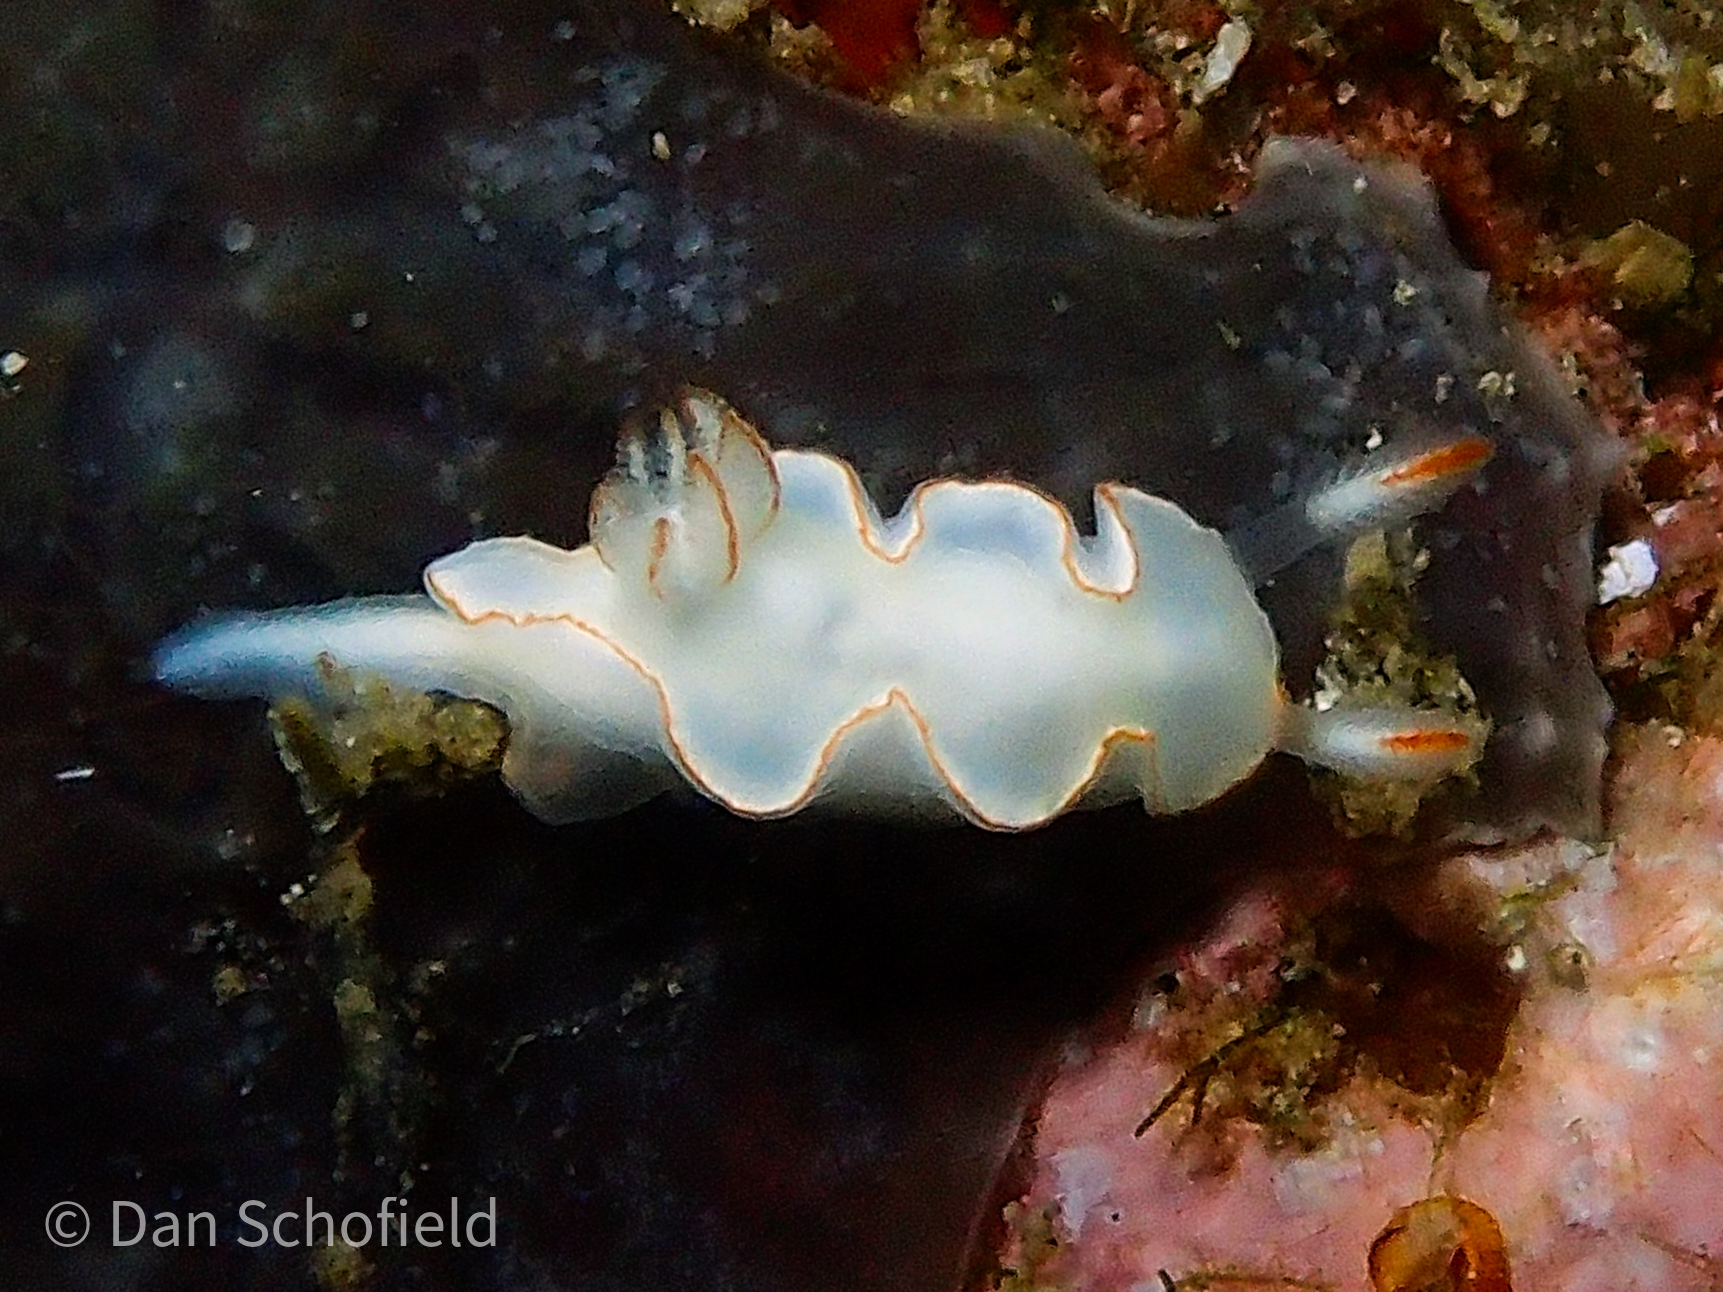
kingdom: Animalia
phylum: Mollusca
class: Gastropoda
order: Nudibranchia
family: Chromodorididae
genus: Thorunna
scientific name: Thorunna furtiva
